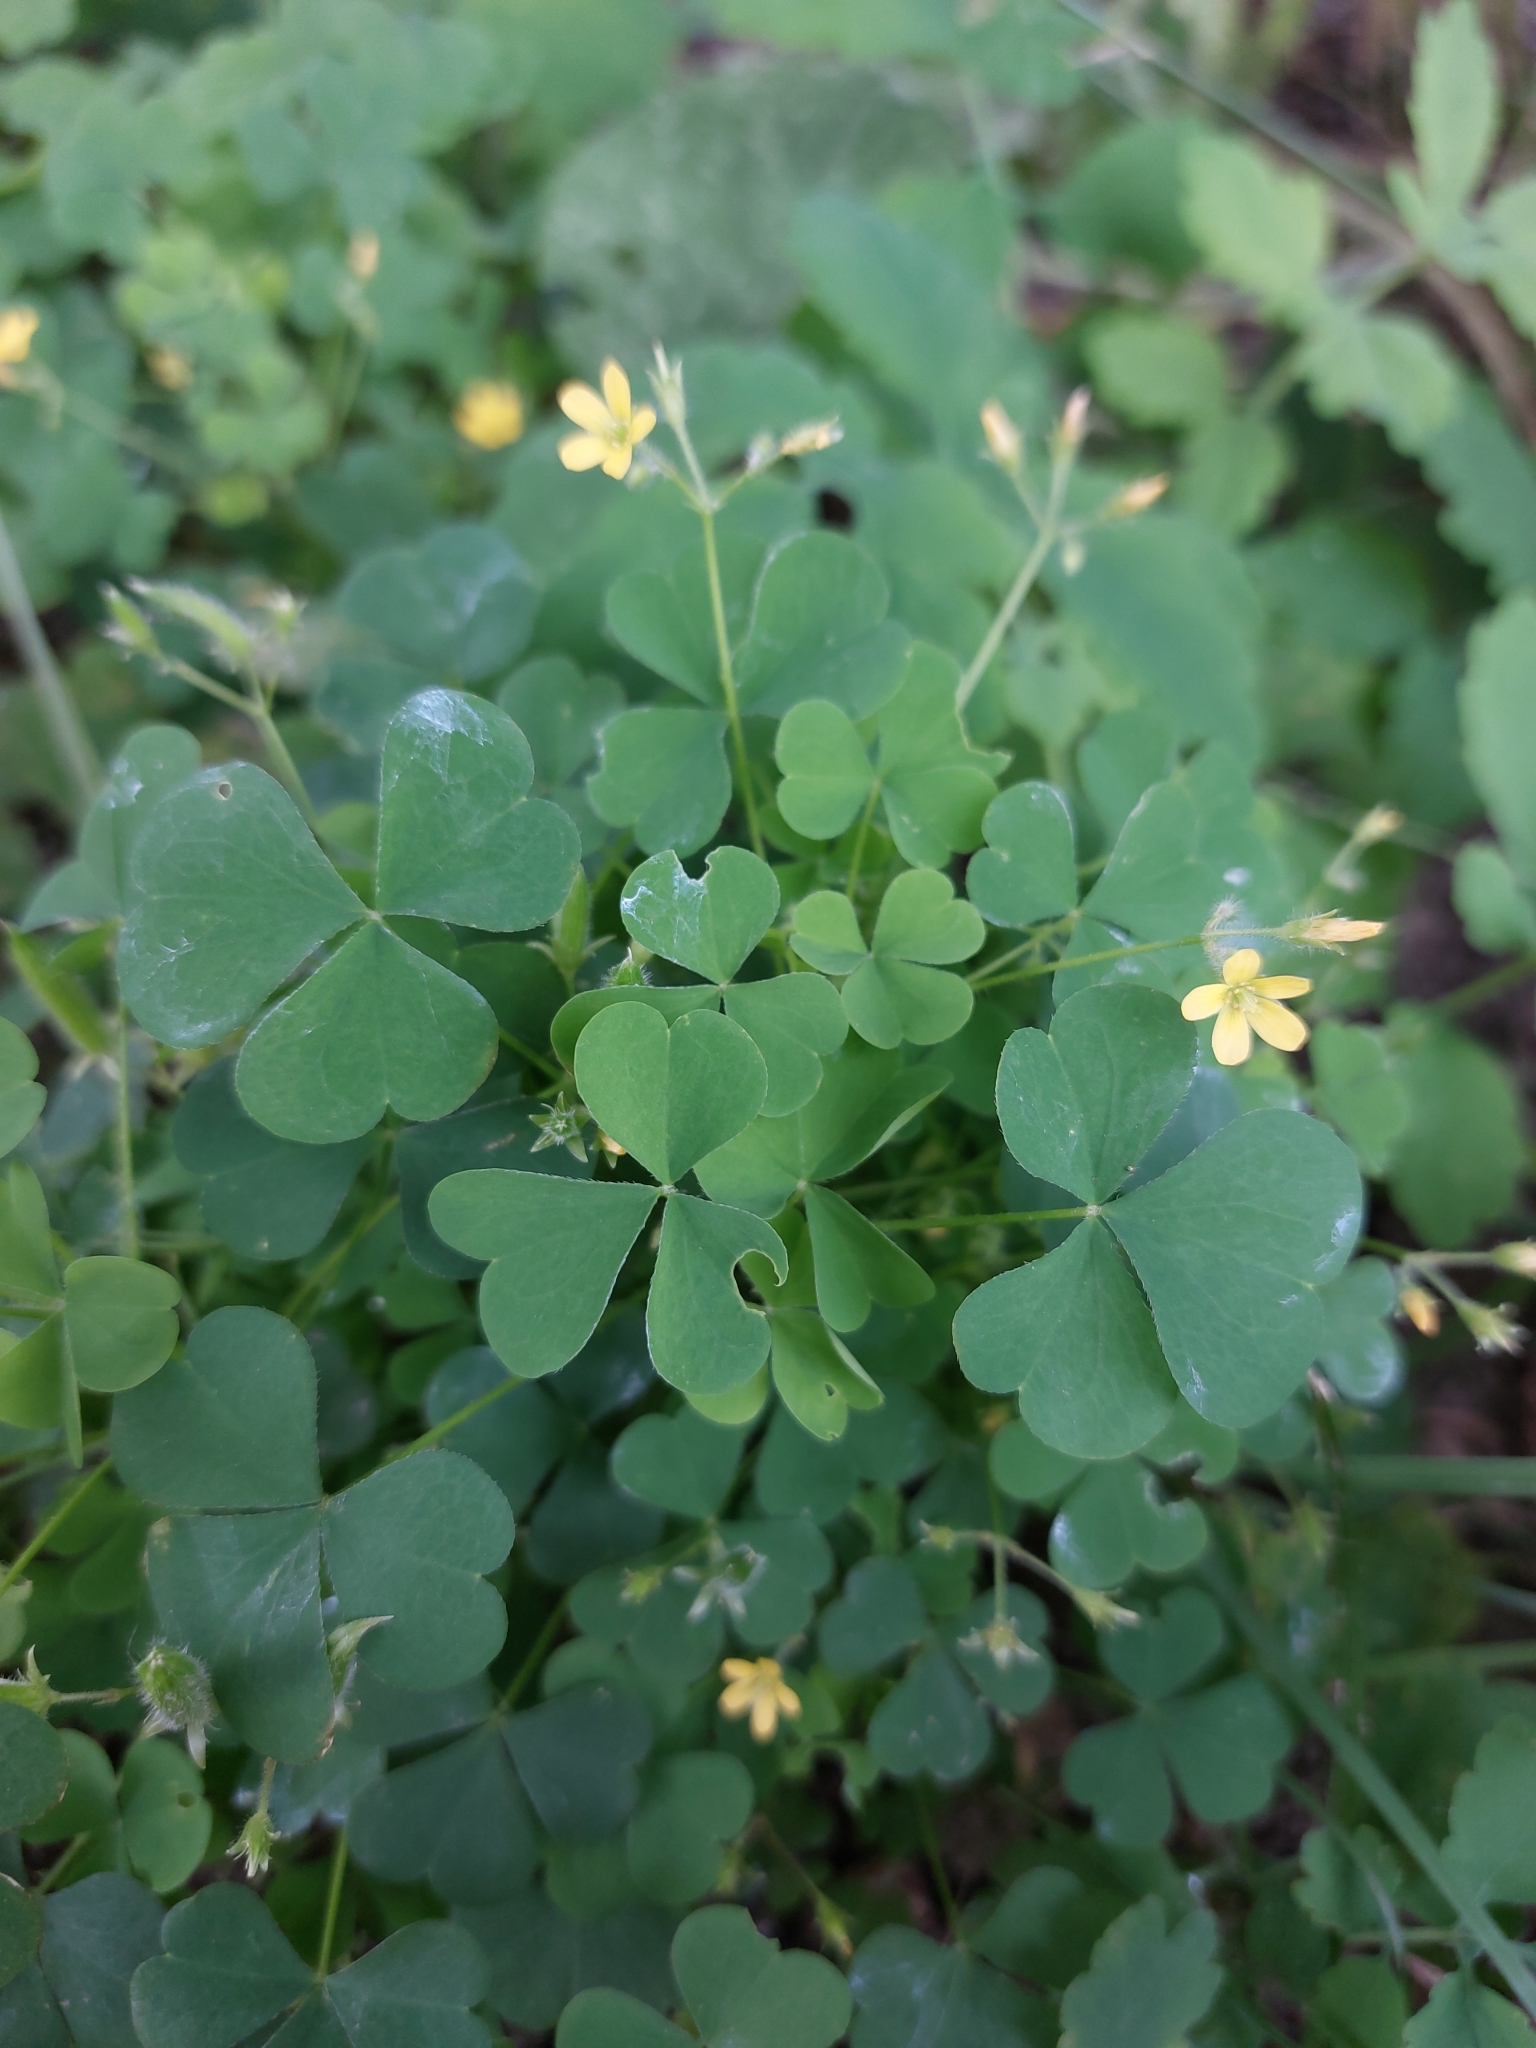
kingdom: Plantae
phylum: Tracheophyta
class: Magnoliopsida
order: Oxalidales
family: Oxalidaceae
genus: Oxalis
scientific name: Oxalis stricta
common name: Upright yellow-sorrel
